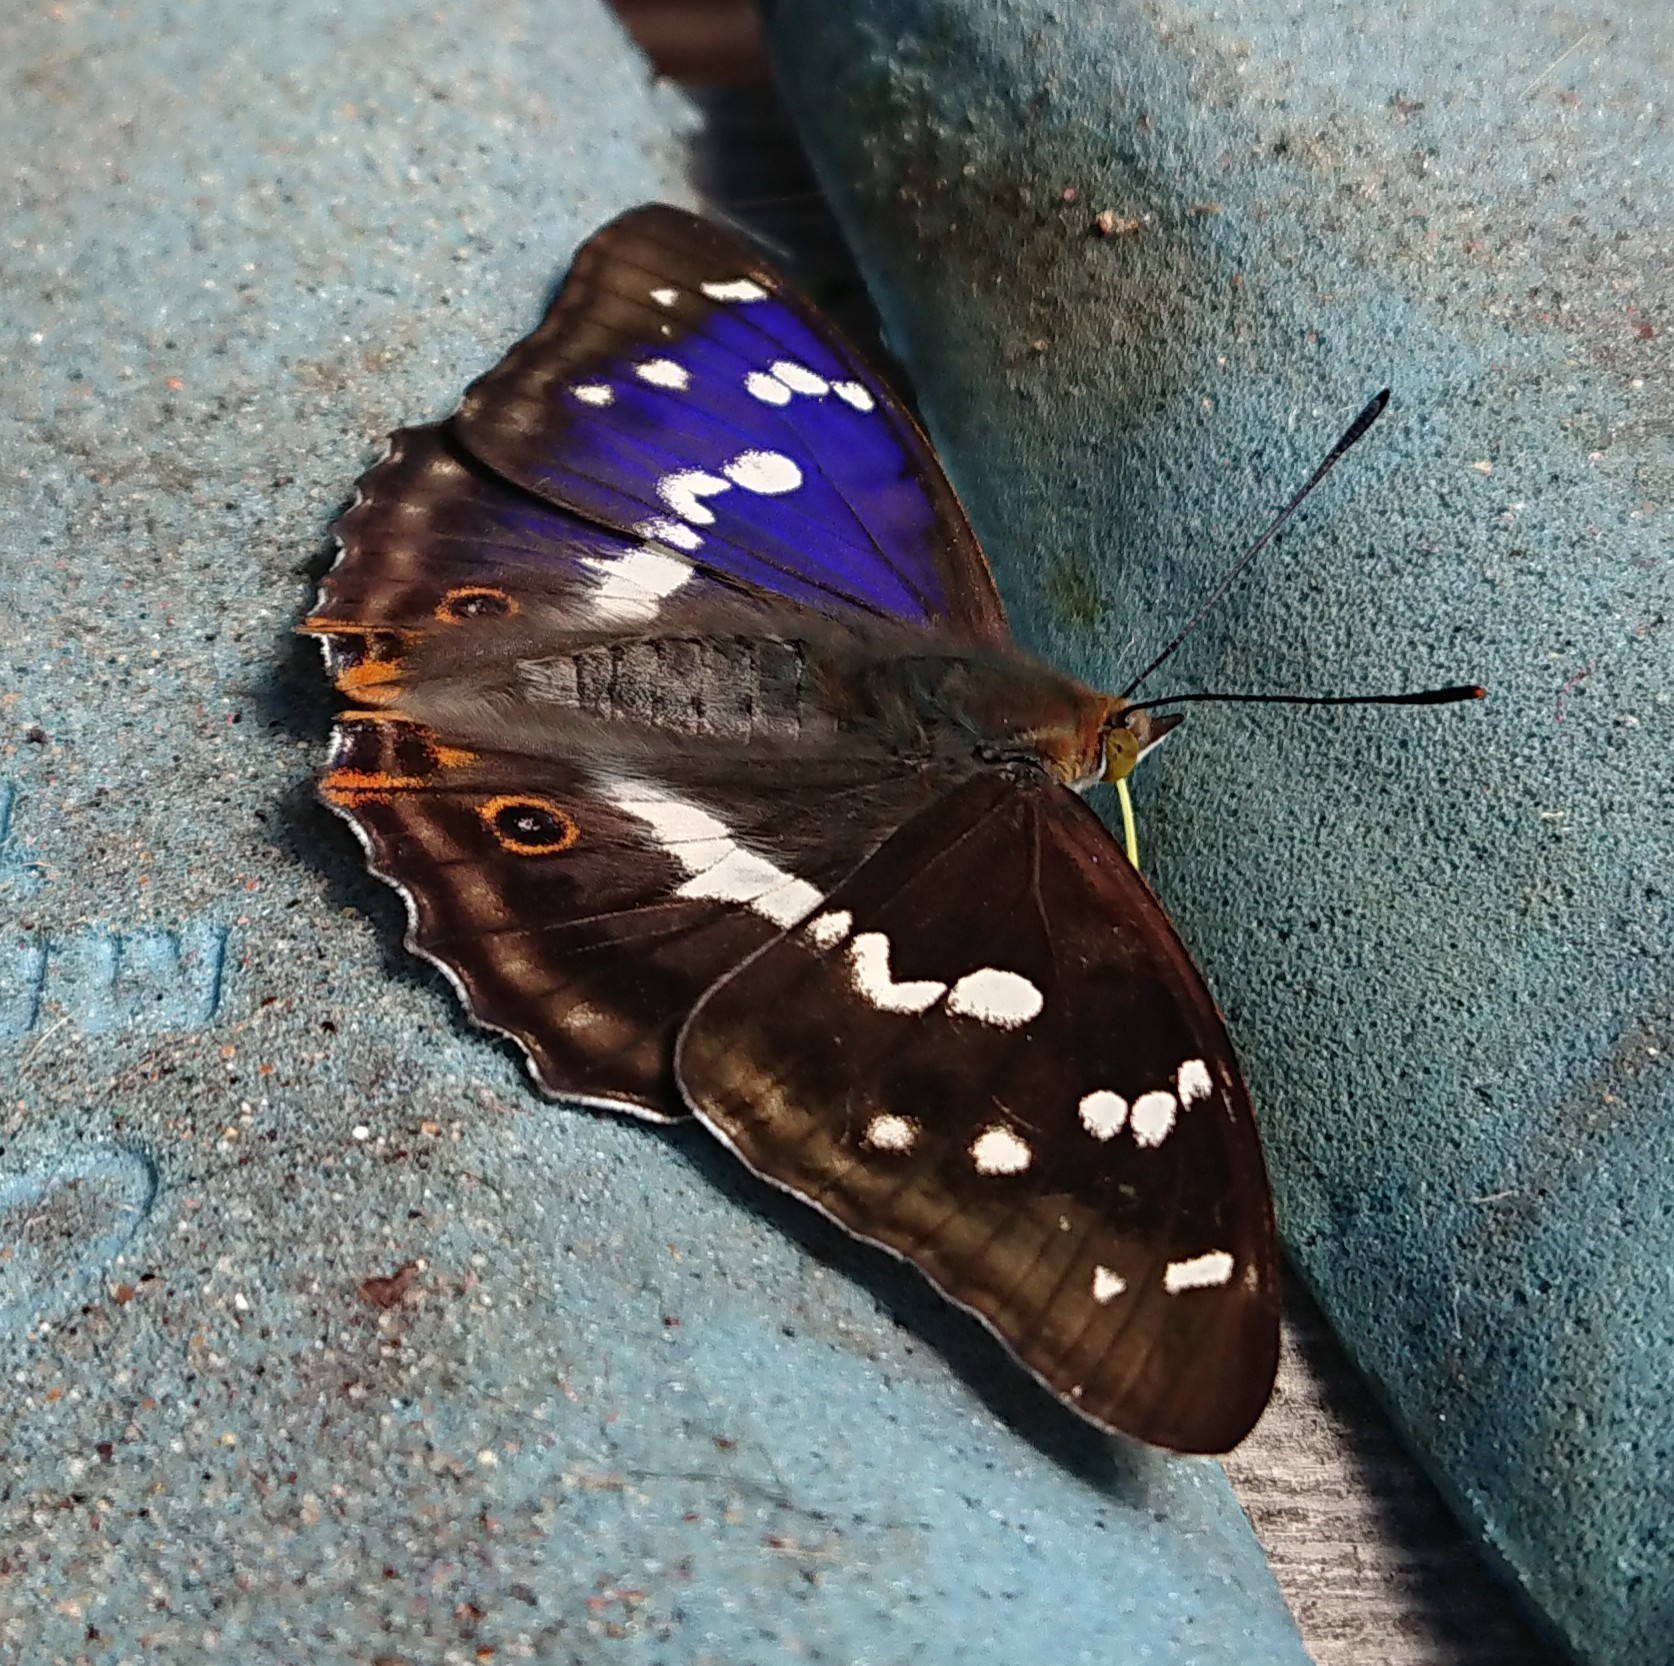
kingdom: Animalia
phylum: Arthropoda
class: Insecta
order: Lepidoptera
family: Nymphalidae
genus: Apatura
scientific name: Apatura iris
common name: Purple emperor
